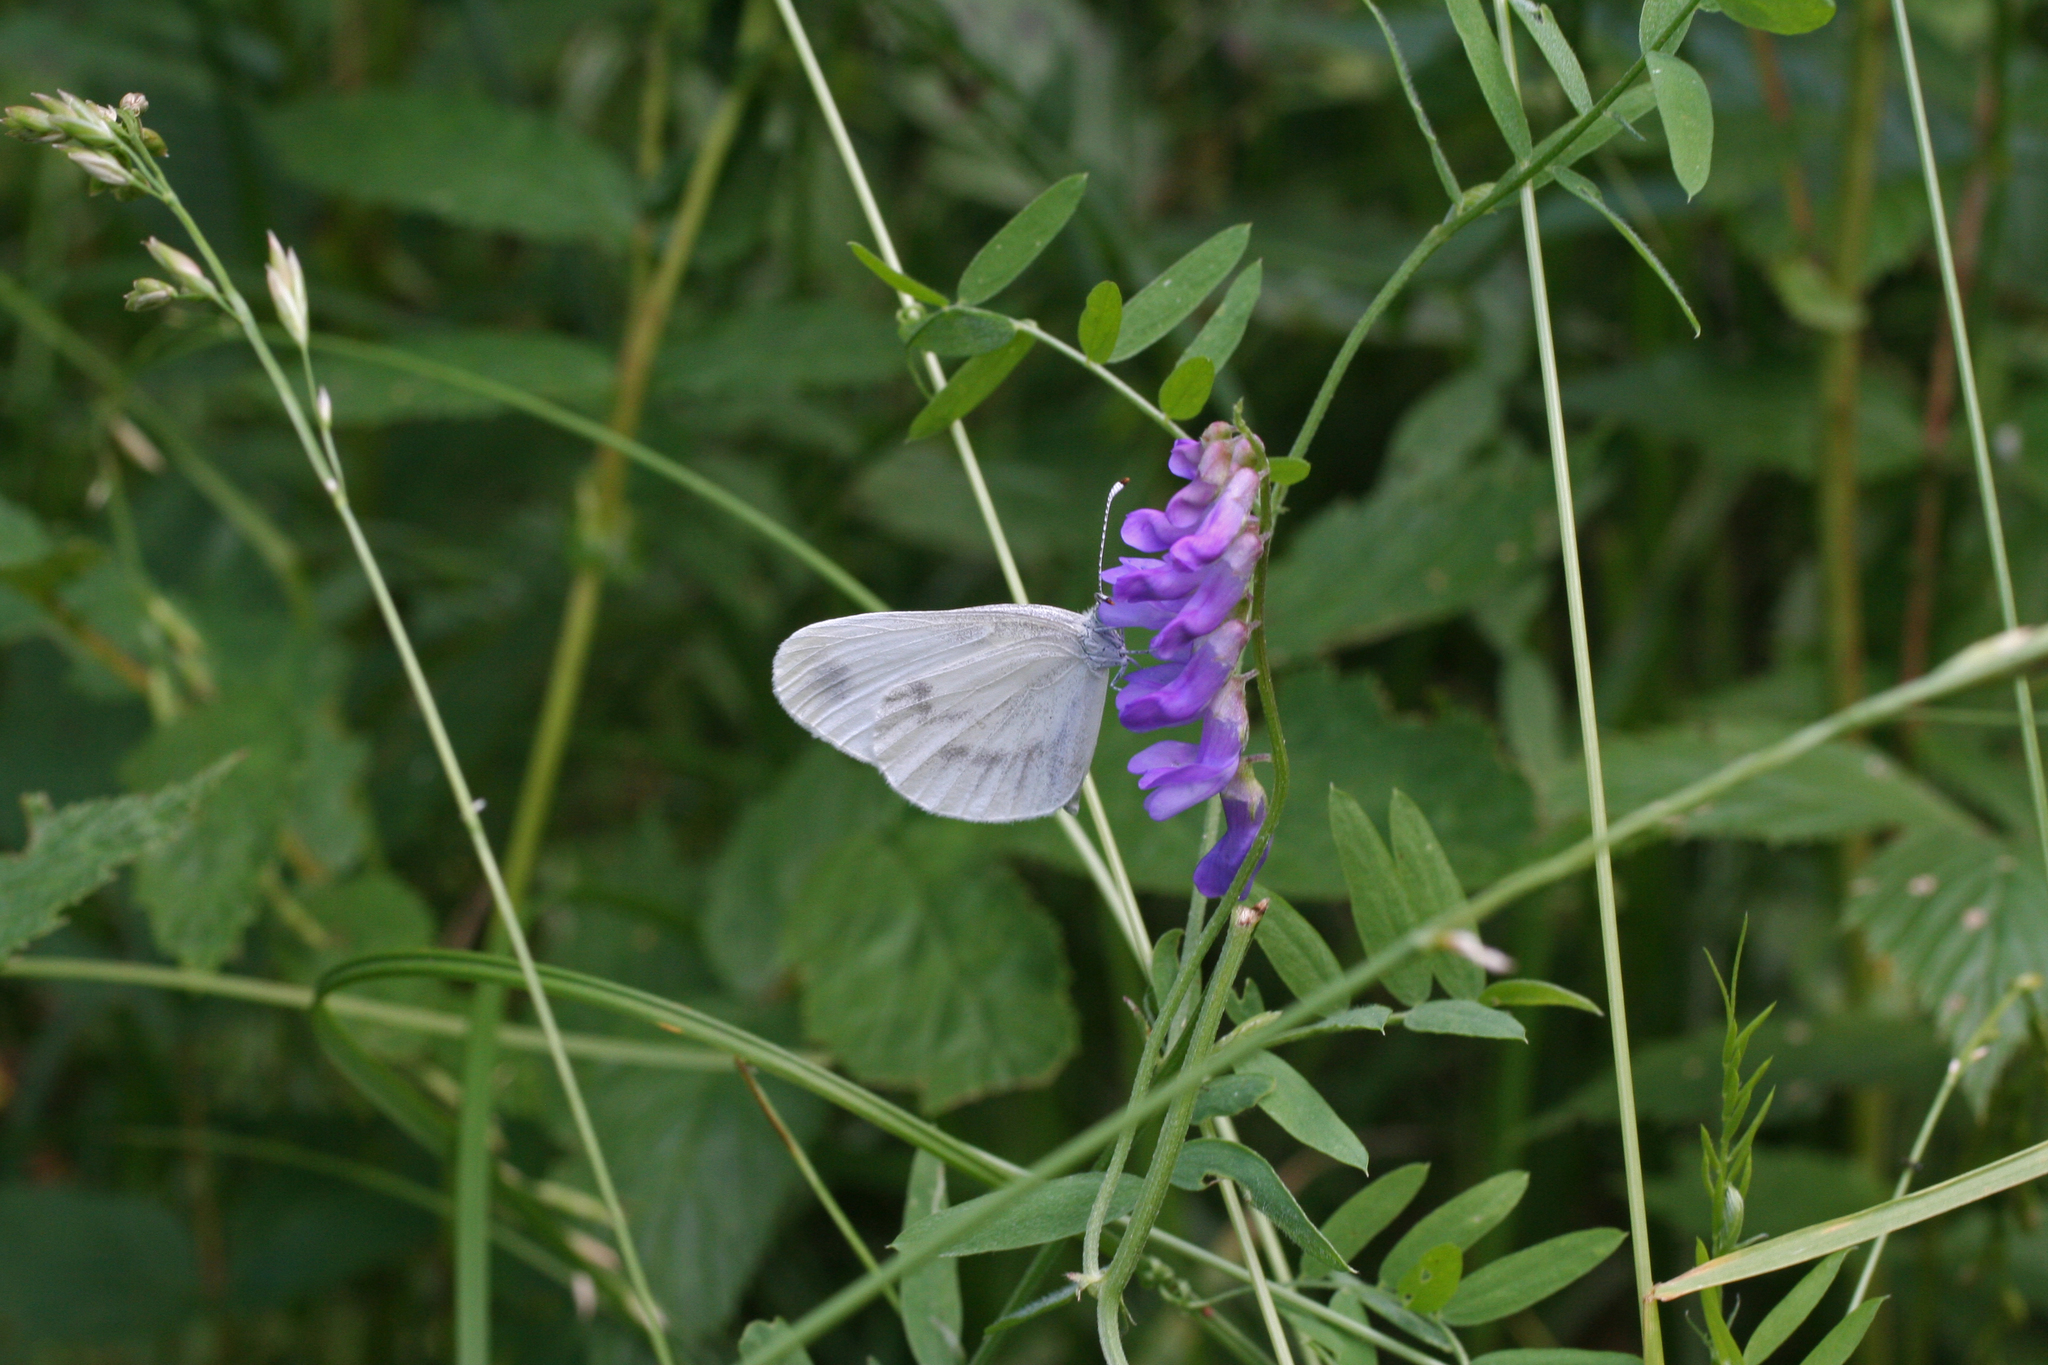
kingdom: Animalia
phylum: Arthropoda
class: Insecta
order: Lepidoptera
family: Pieridae
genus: Leptidea
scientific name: Leptidea morsei
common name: Fenton's wood white
